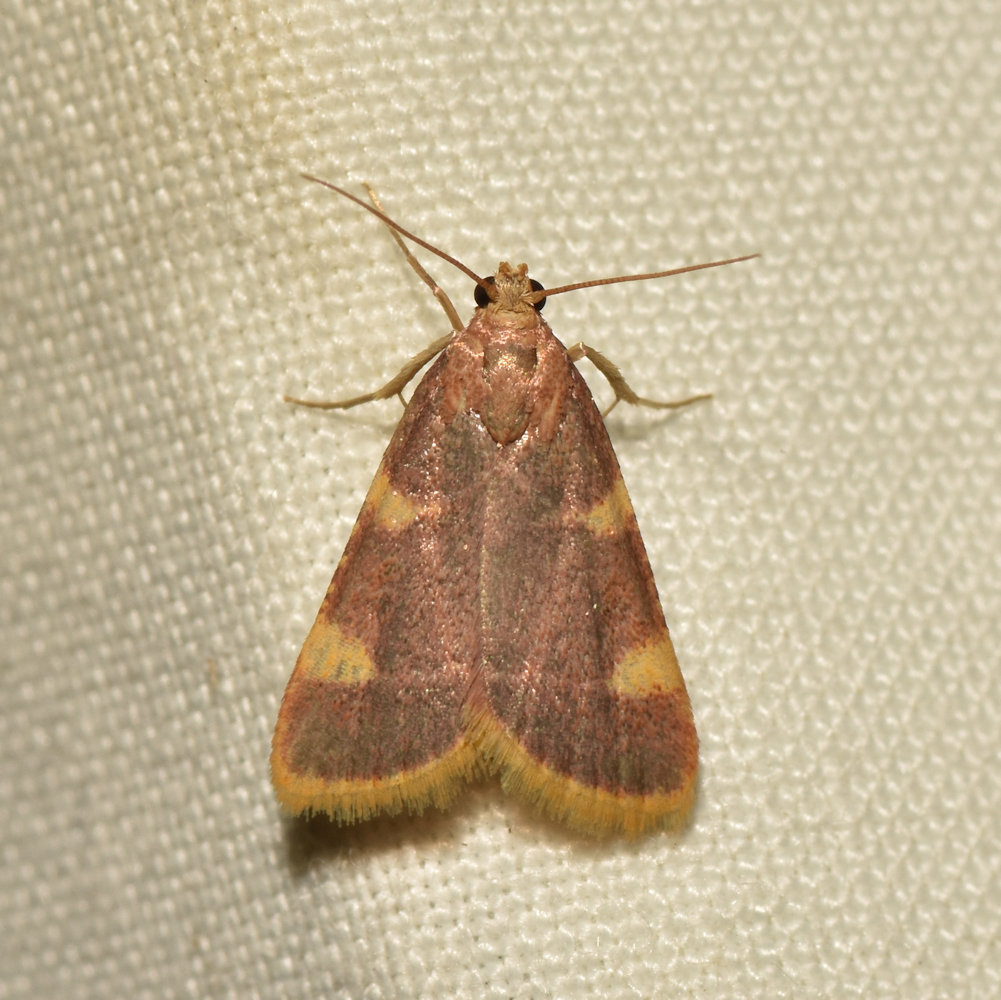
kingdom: Animalia
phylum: Arthropoda
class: Insecta
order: Lepidoptera
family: Pyralidae
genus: Hypsopygia
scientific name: Hypsopygia costalis
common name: Gold triangle
